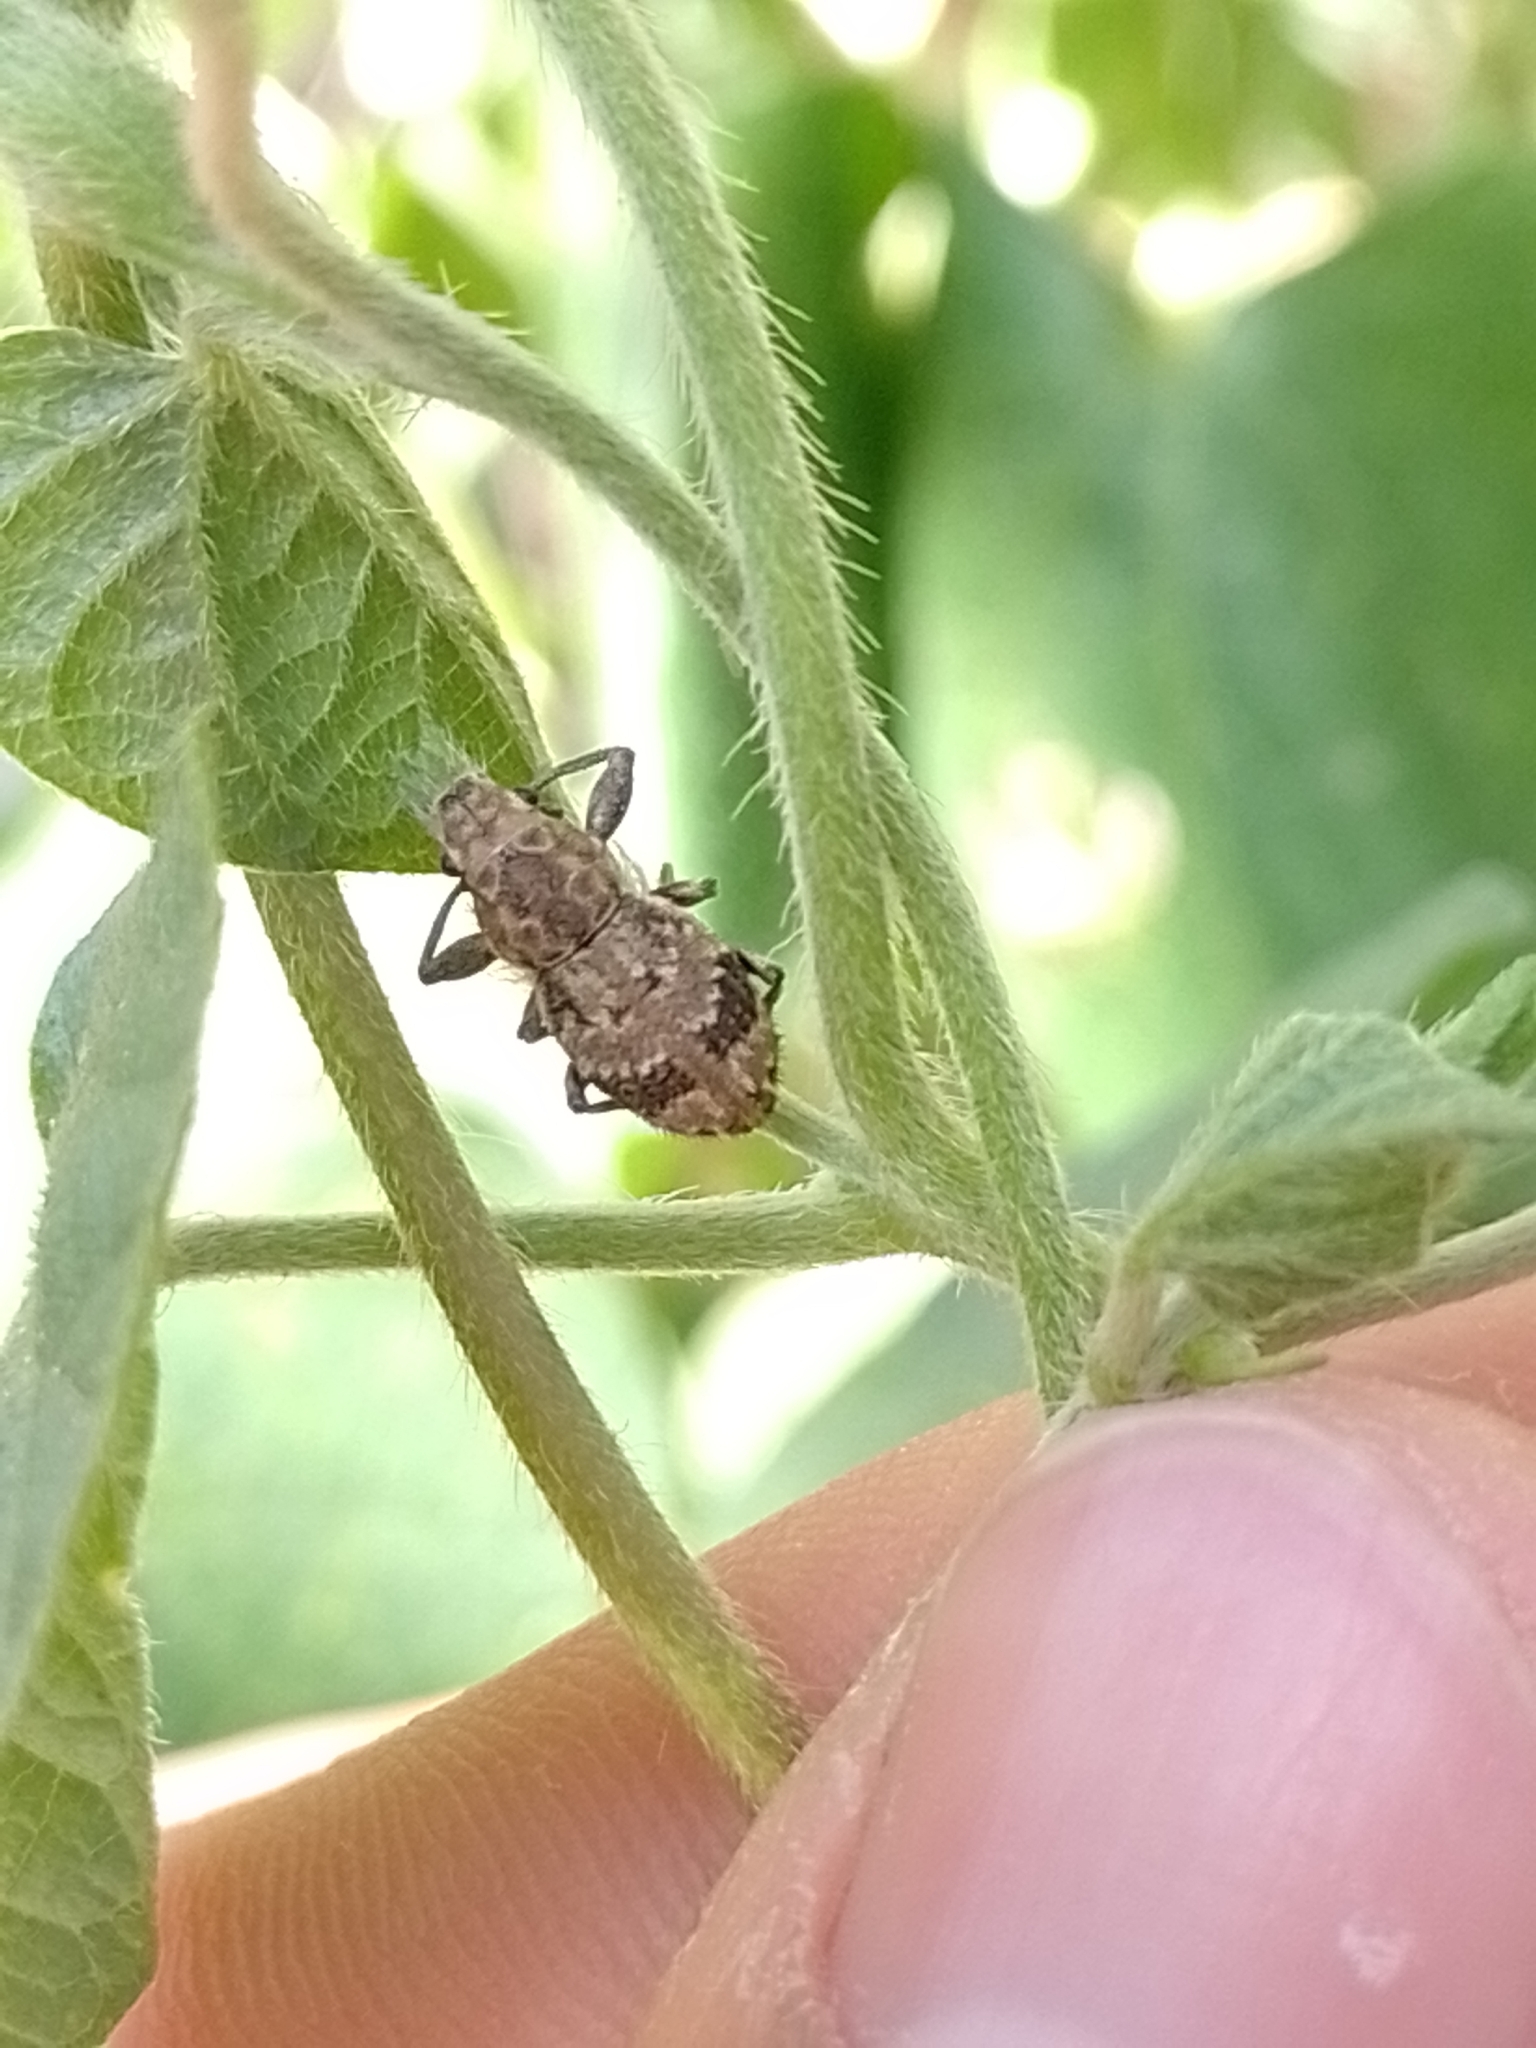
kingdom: Animalia
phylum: Arthropoda
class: Insecta
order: Coleoptera
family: Curculionidae
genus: Pantomorus
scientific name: Pantomorus
